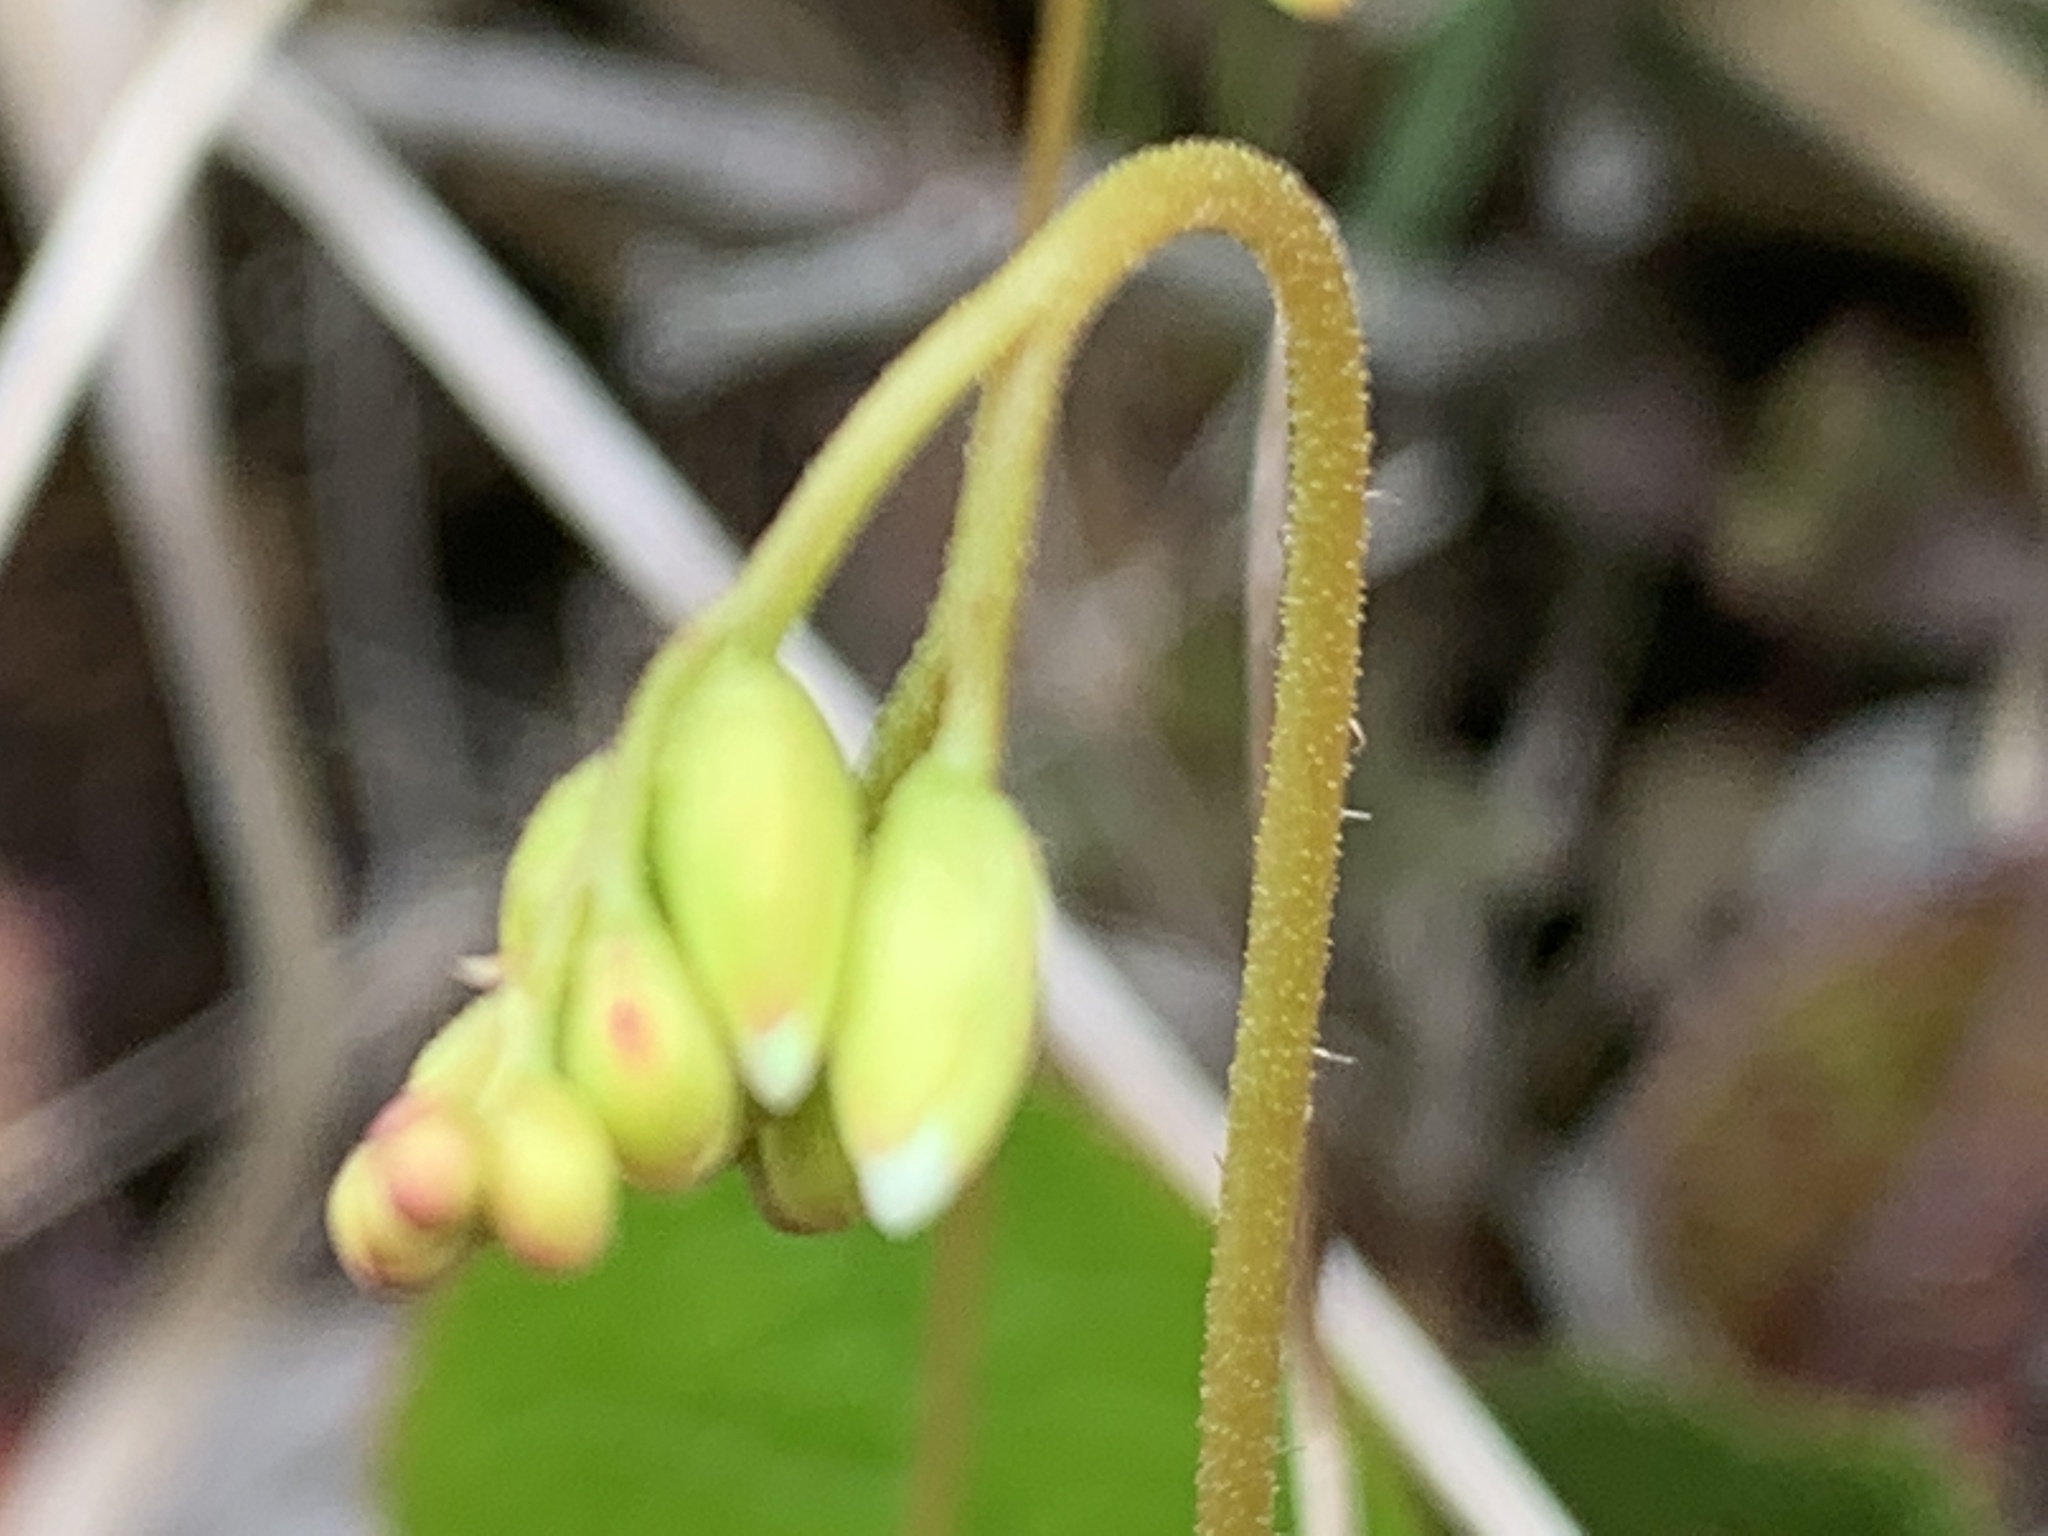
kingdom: Plantae
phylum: Tracheophyta
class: Magnoliopsida
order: Caryophyllales
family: Droseraceae
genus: Drosera
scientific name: Drosera rotundifolia
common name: Round-leaved sundew
